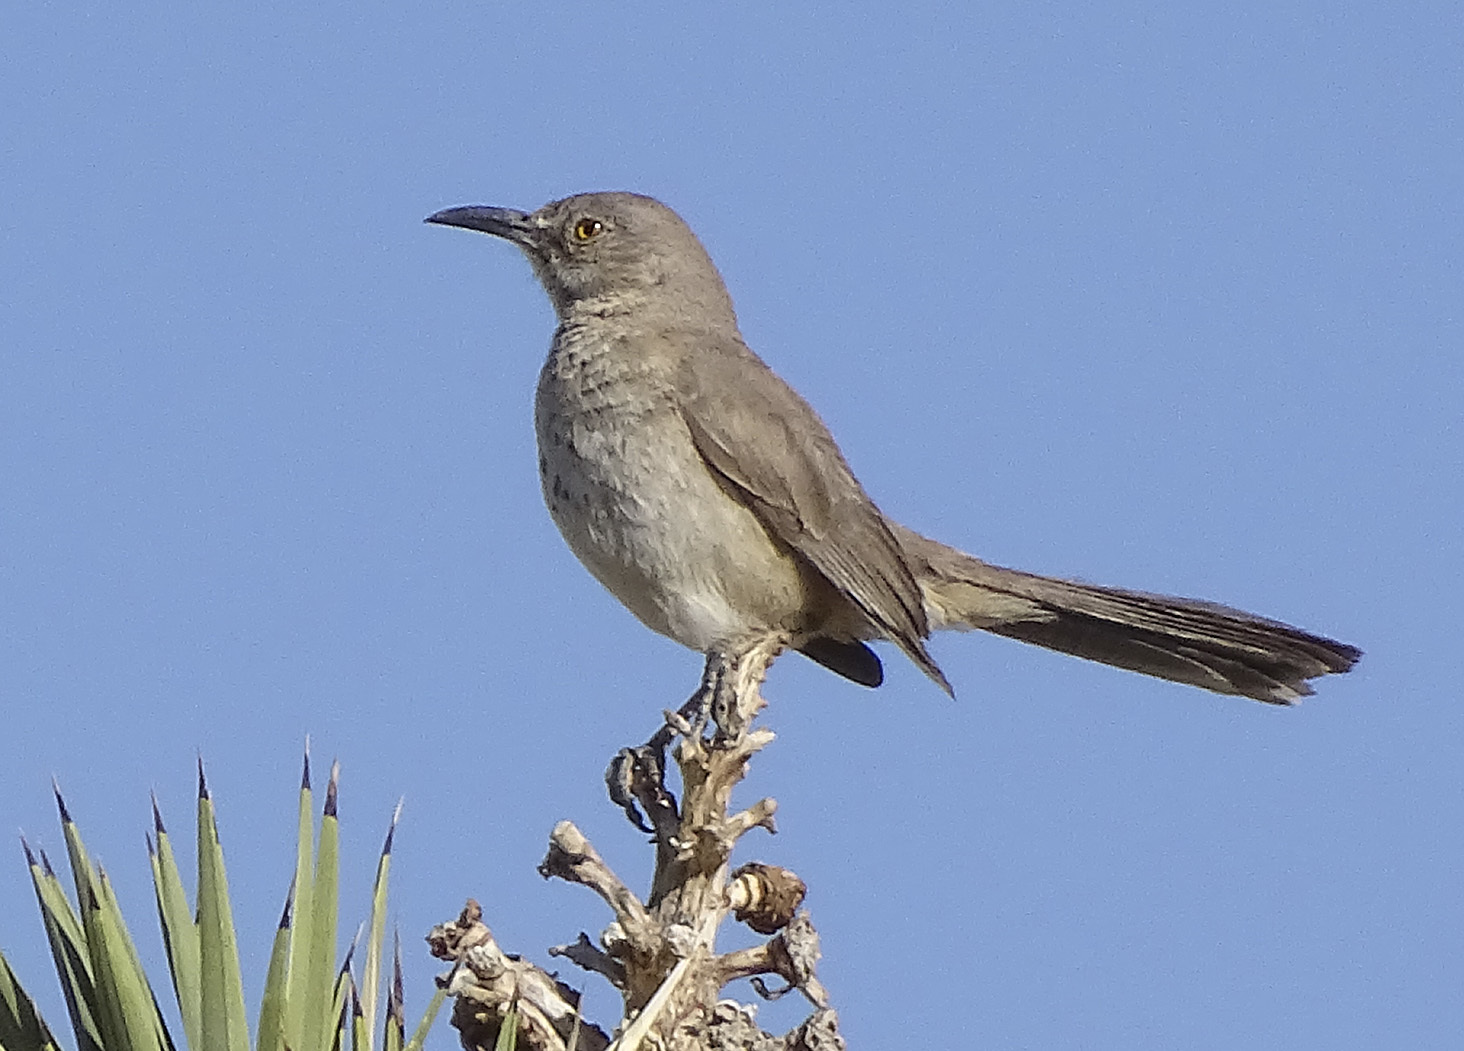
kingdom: Animalia
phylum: Chordata
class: Aves
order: Passeriformes
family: Mimidae
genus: Toxostoma
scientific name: Toxostoma bendirei
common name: Bendire's thrasher
